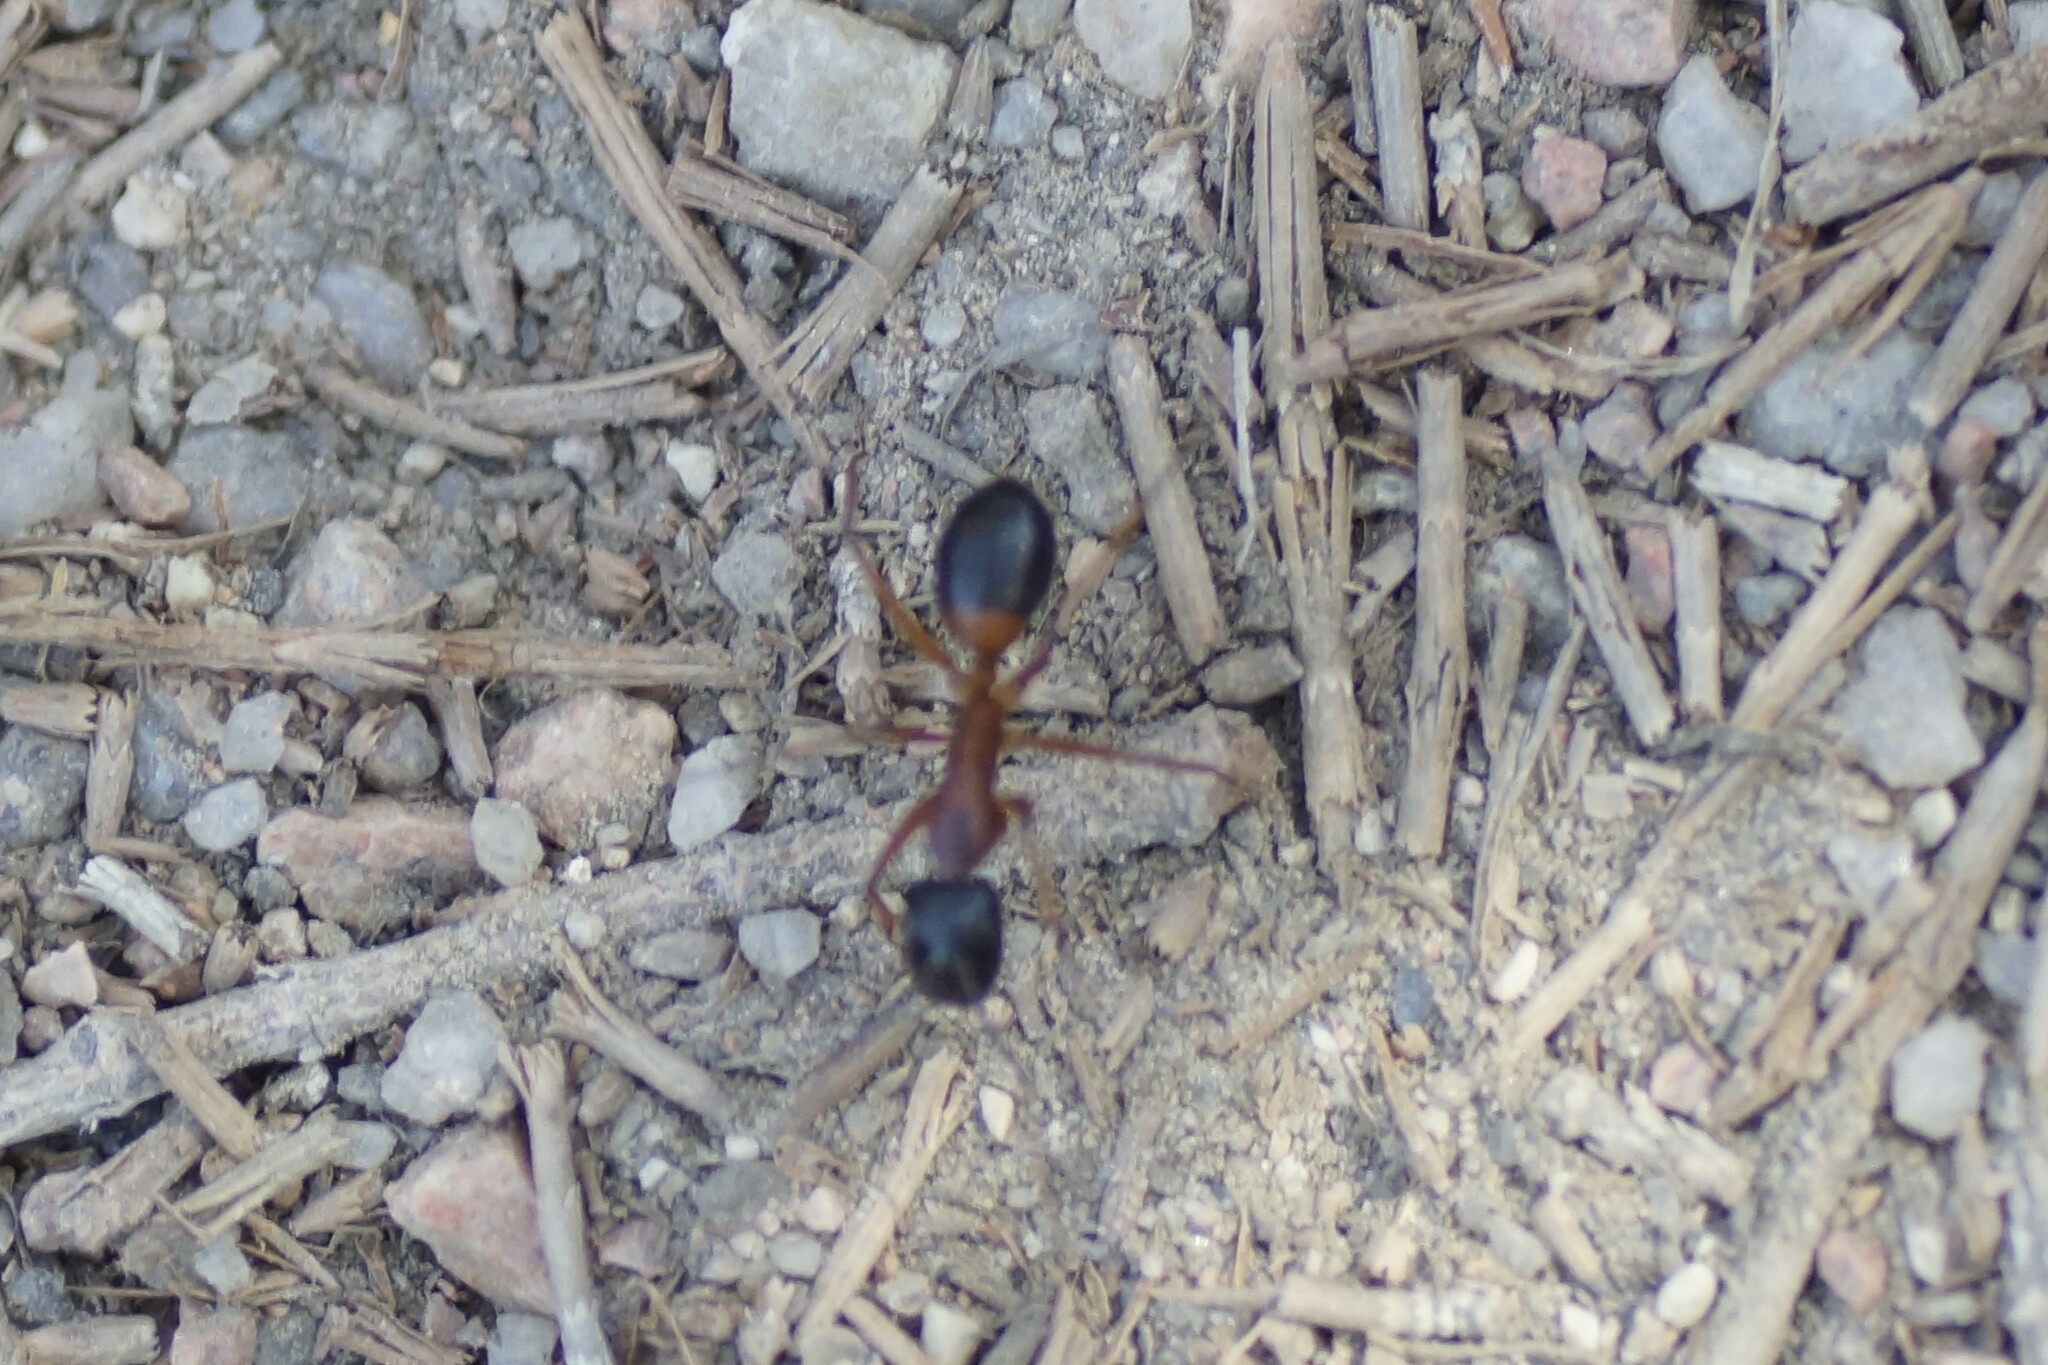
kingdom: Animalia
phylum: Arthropoda
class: Insecta
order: Hymenoptera
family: Formicidae
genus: Camponotus
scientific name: Camponotus consobrinus
